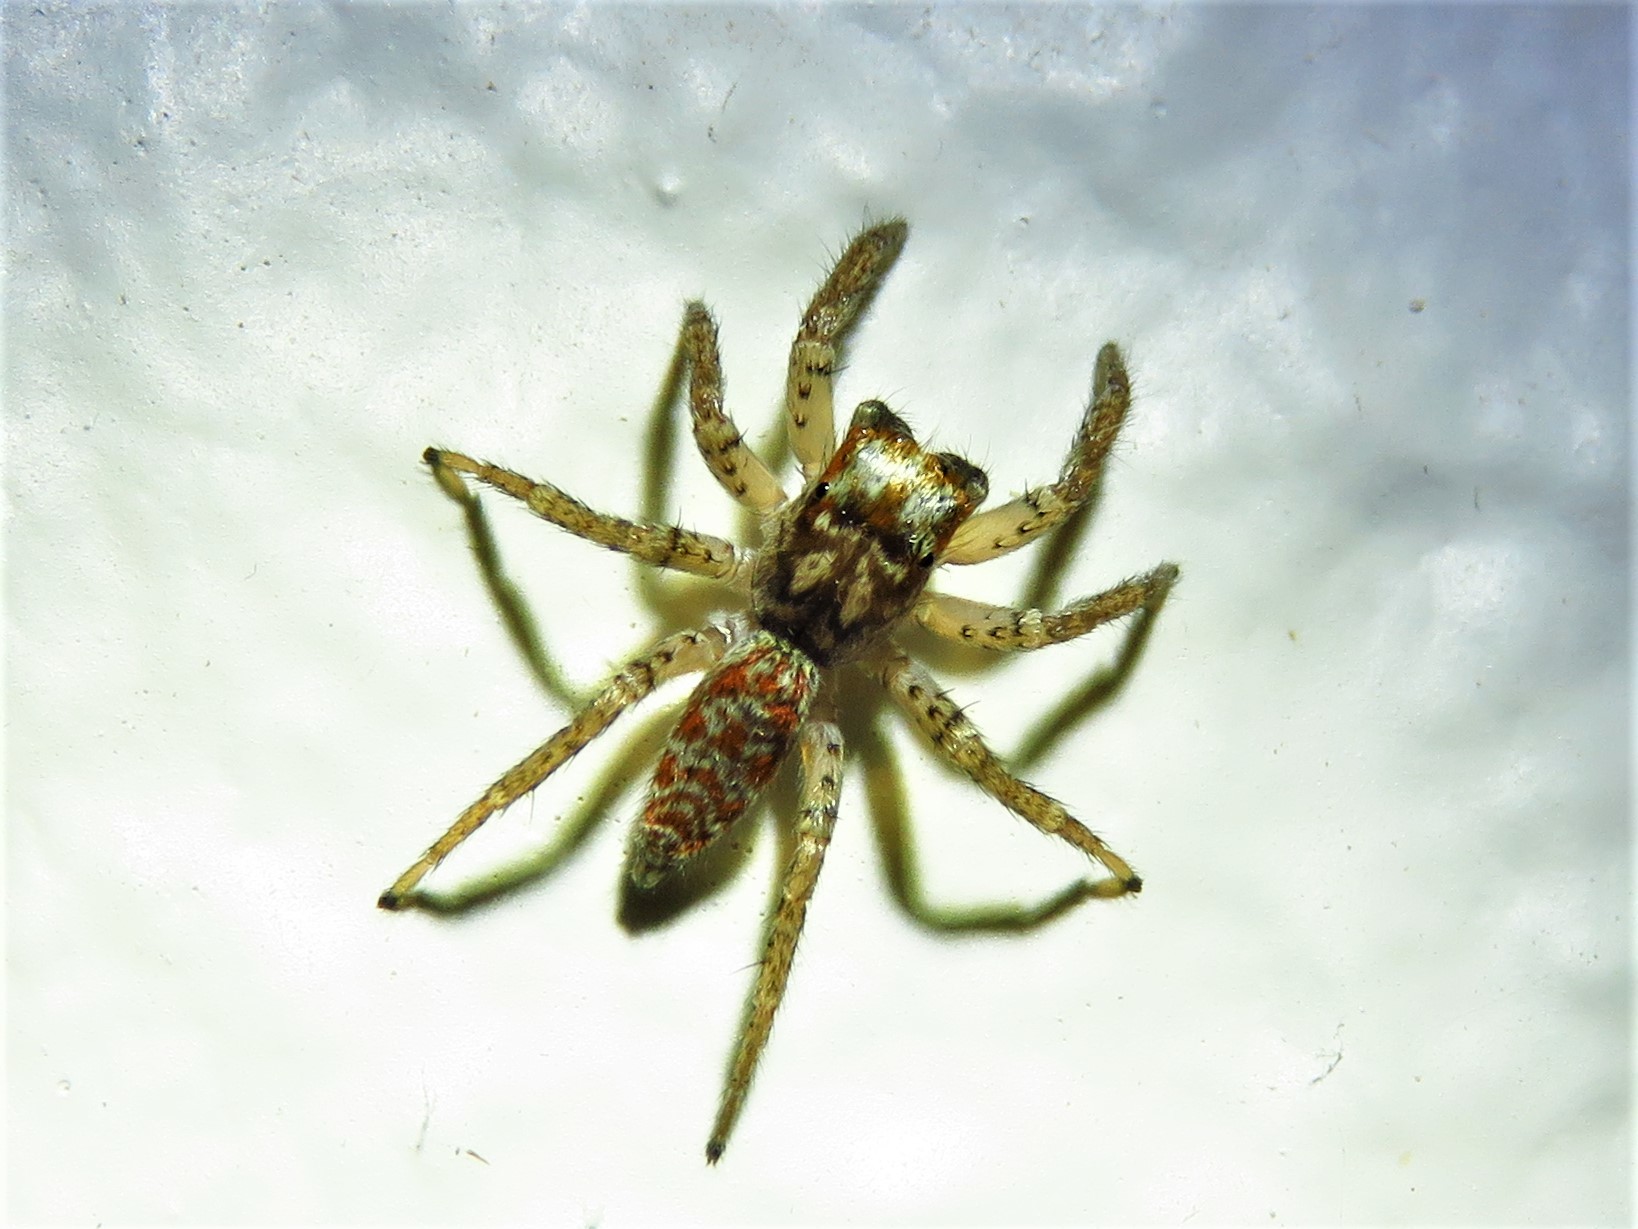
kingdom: Animalia
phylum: Arthropoda
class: Arachnida
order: Araneae
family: Salticidae
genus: Maevia
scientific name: Maevia inclemens
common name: Dimorphic jumper
